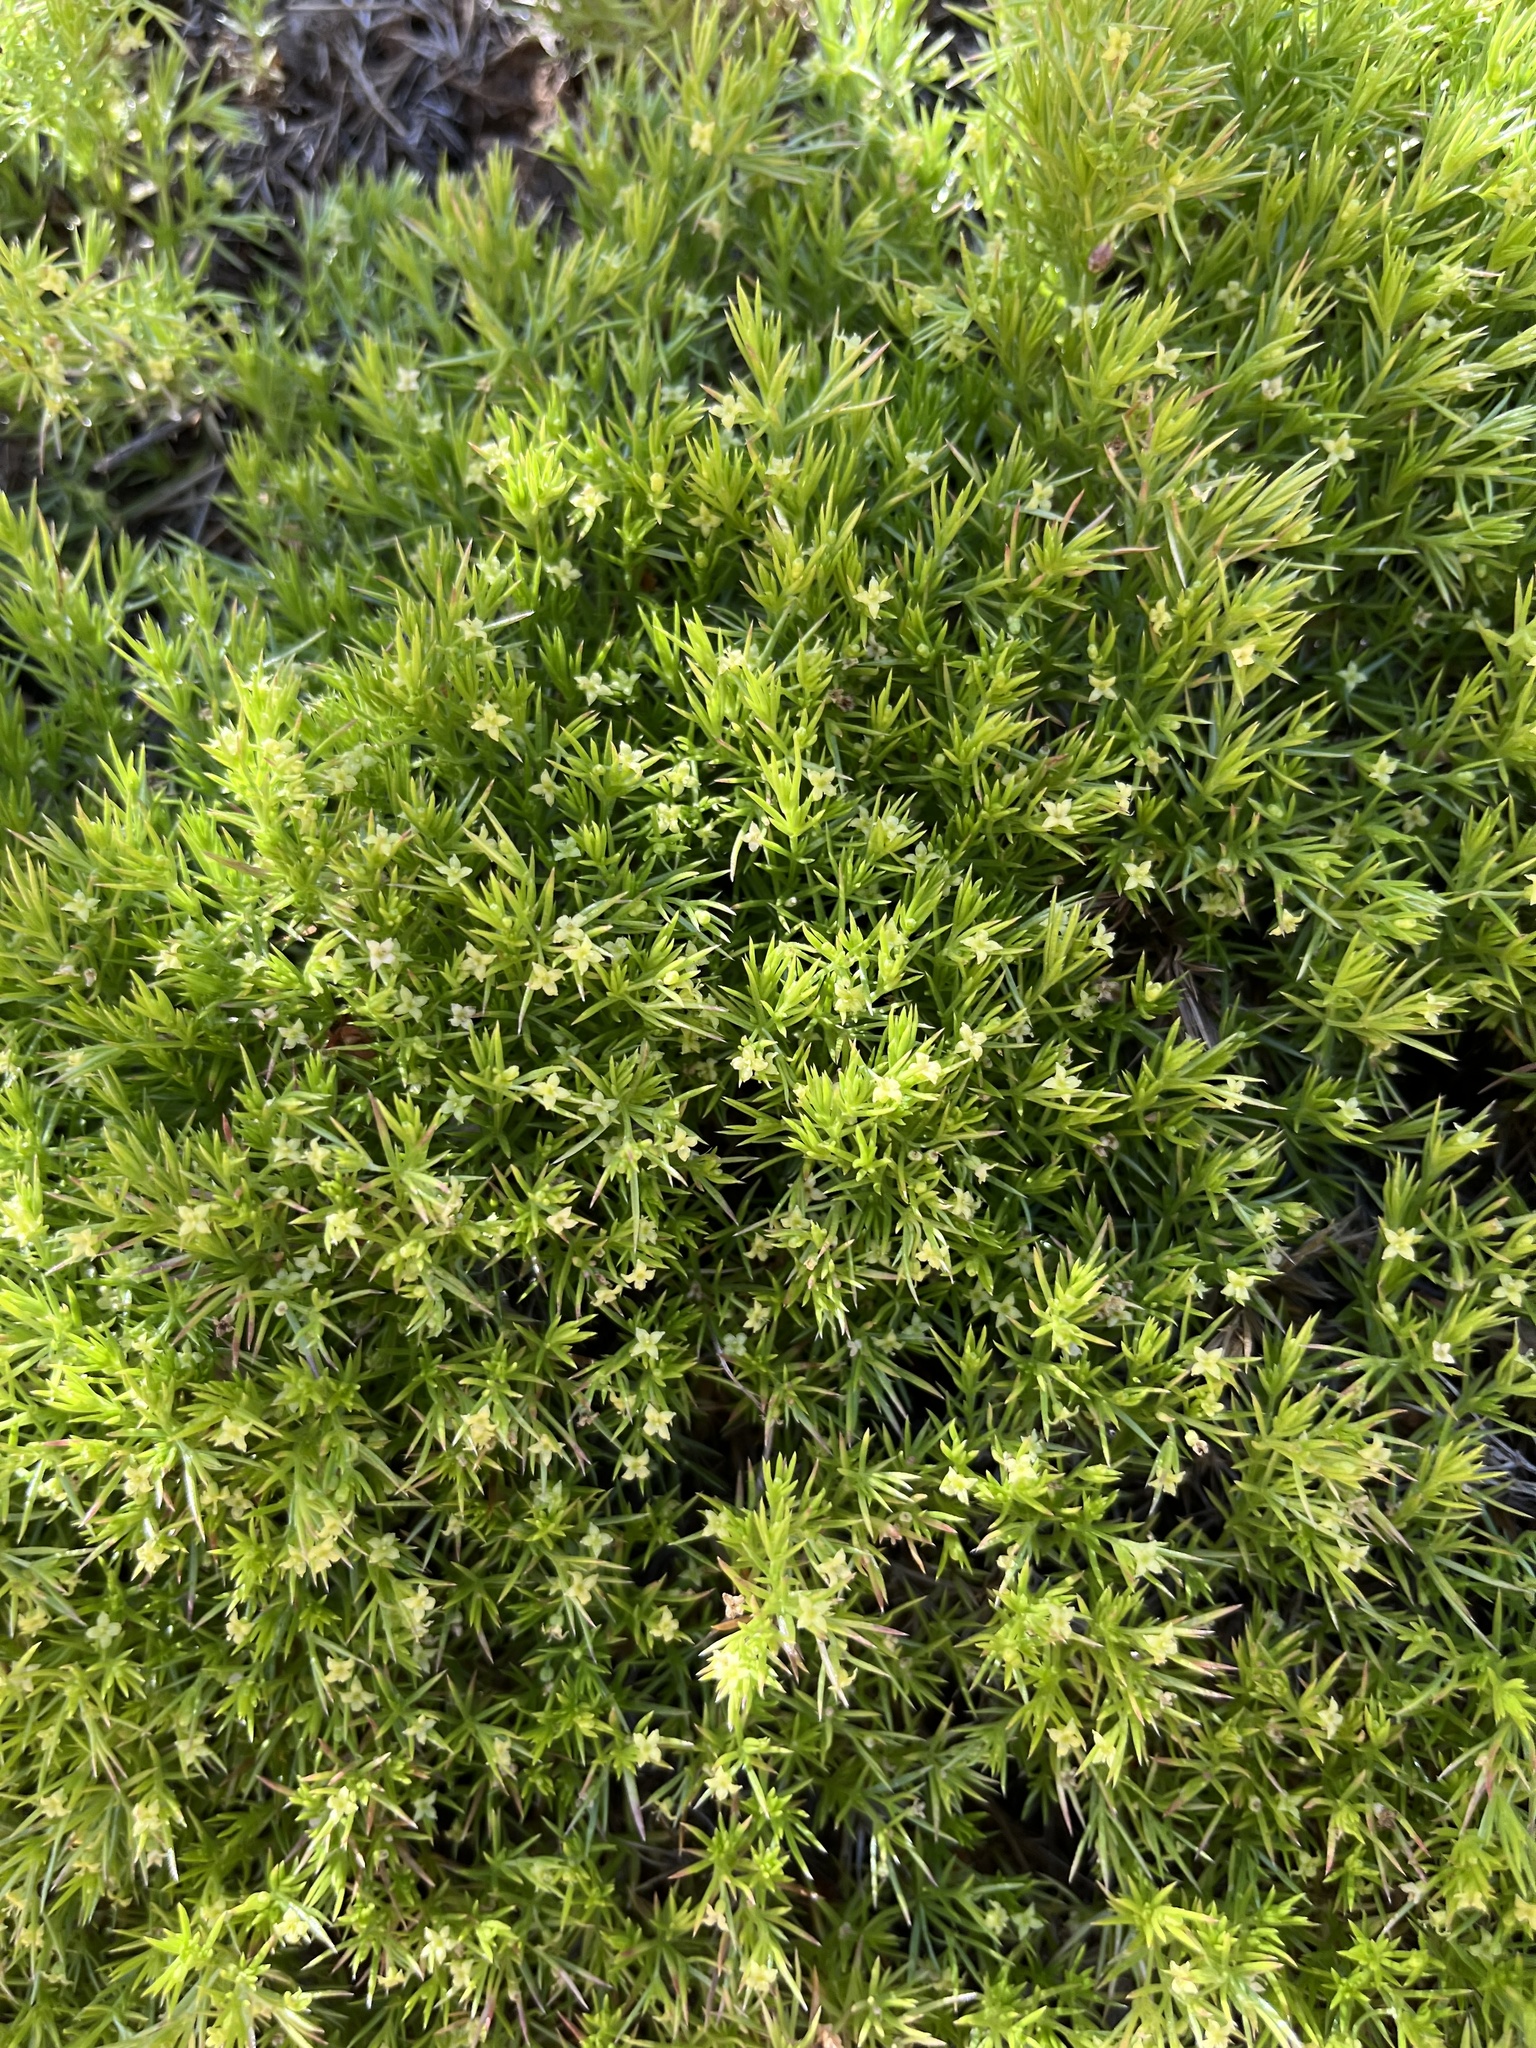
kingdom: Plantae
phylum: Tracheophyta
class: Magnoliopsida
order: Gentianales
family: Rubiaceae
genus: Galium
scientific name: Galium andrewsii
